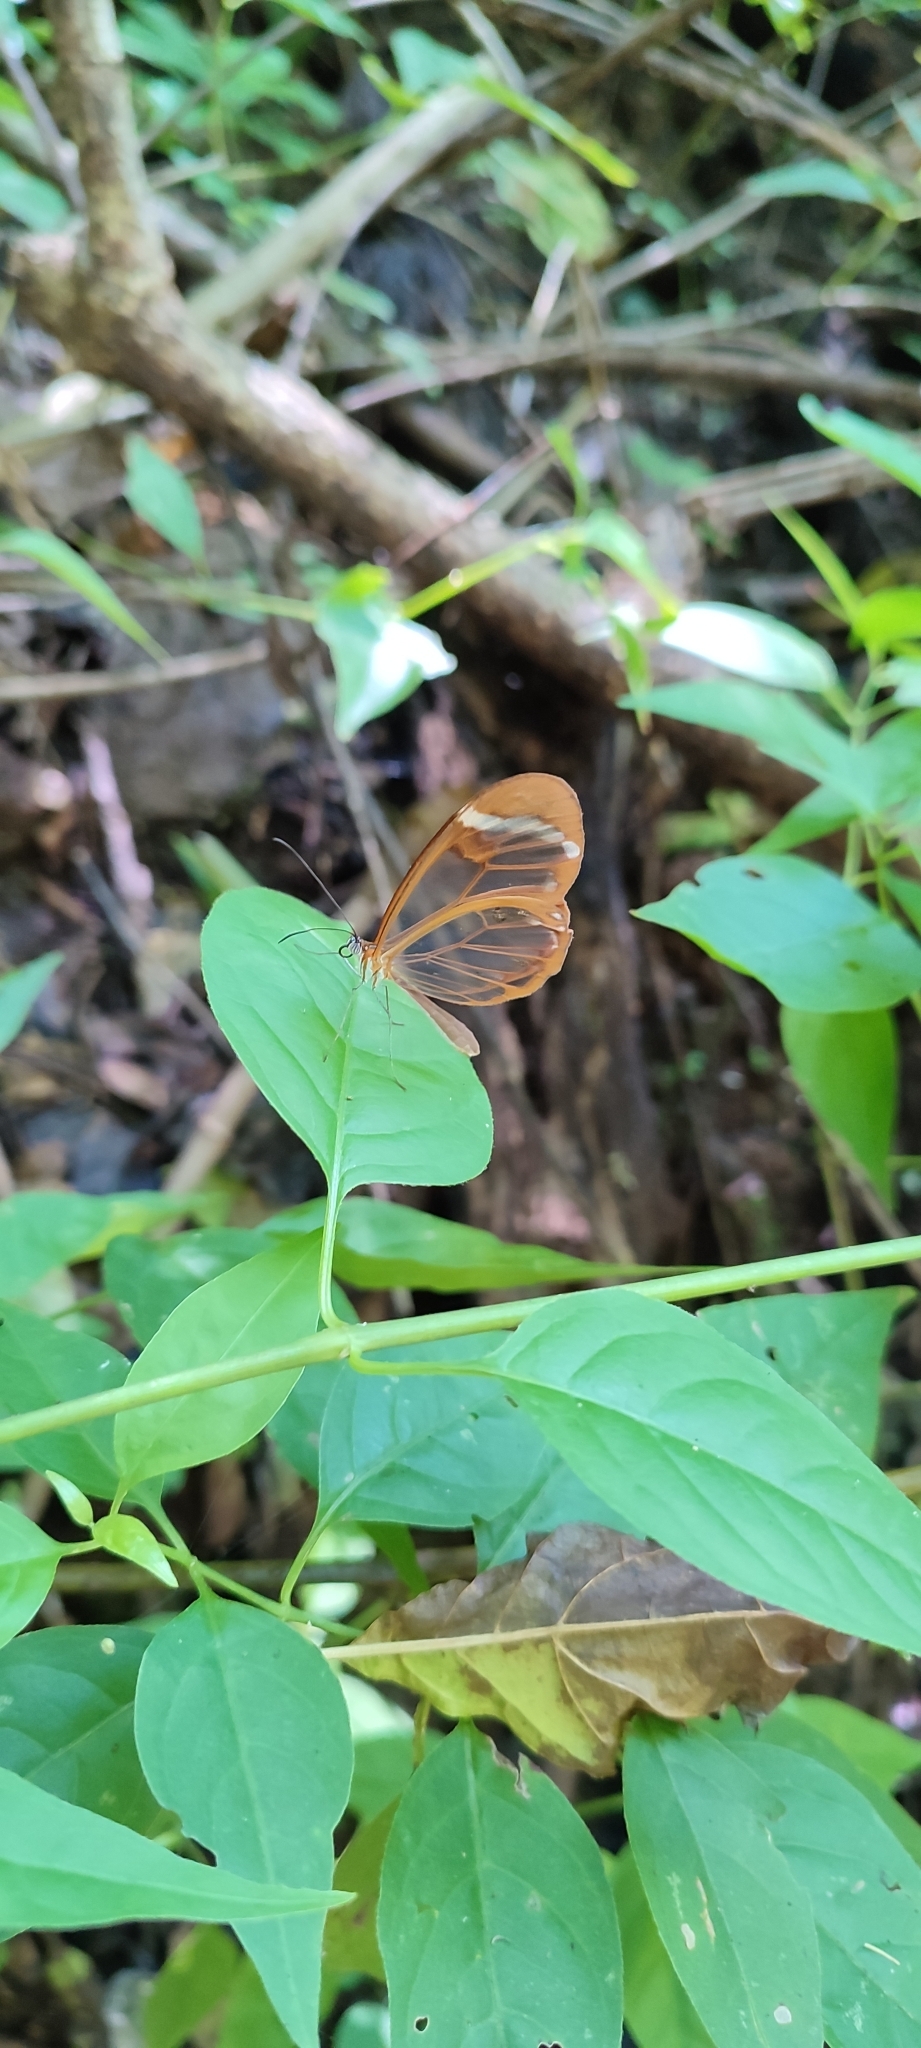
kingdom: Animalia
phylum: Arthropoda
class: Insecta
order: Lepidoptera
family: Nymphalidae
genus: Greta
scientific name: Greta morgane
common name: Thick-tipped greta
